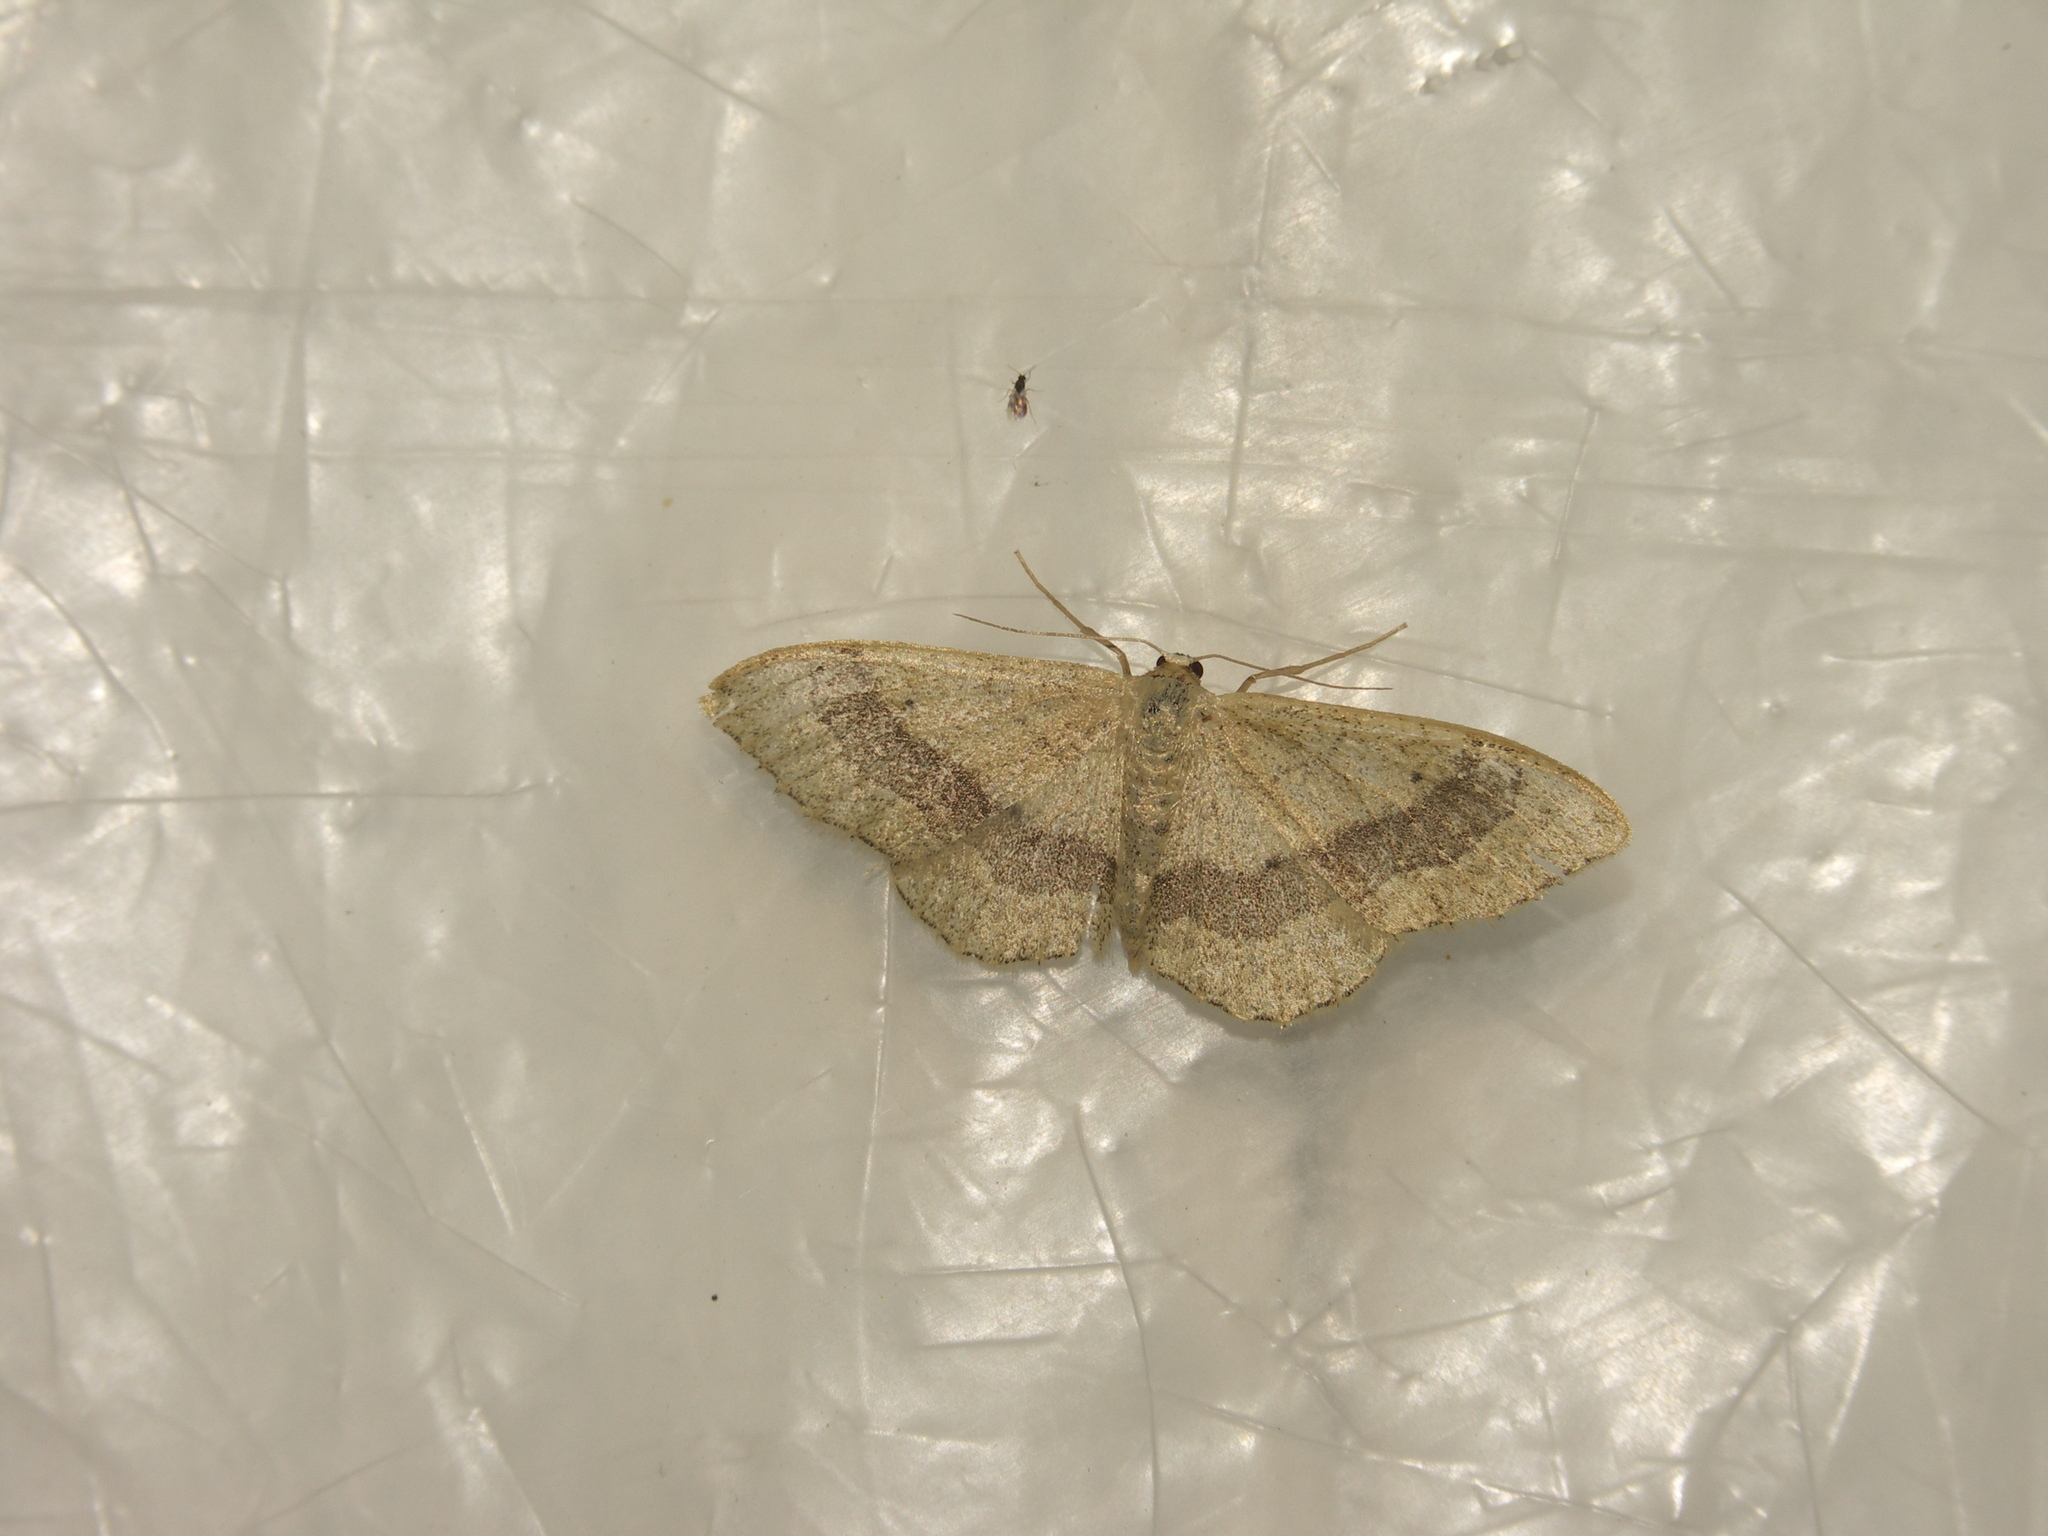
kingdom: Animalia
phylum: Arthropoda
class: Insecta
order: Lepidoptera
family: Geometridae
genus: Idaea
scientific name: Idaea aversata
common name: Riband wave
